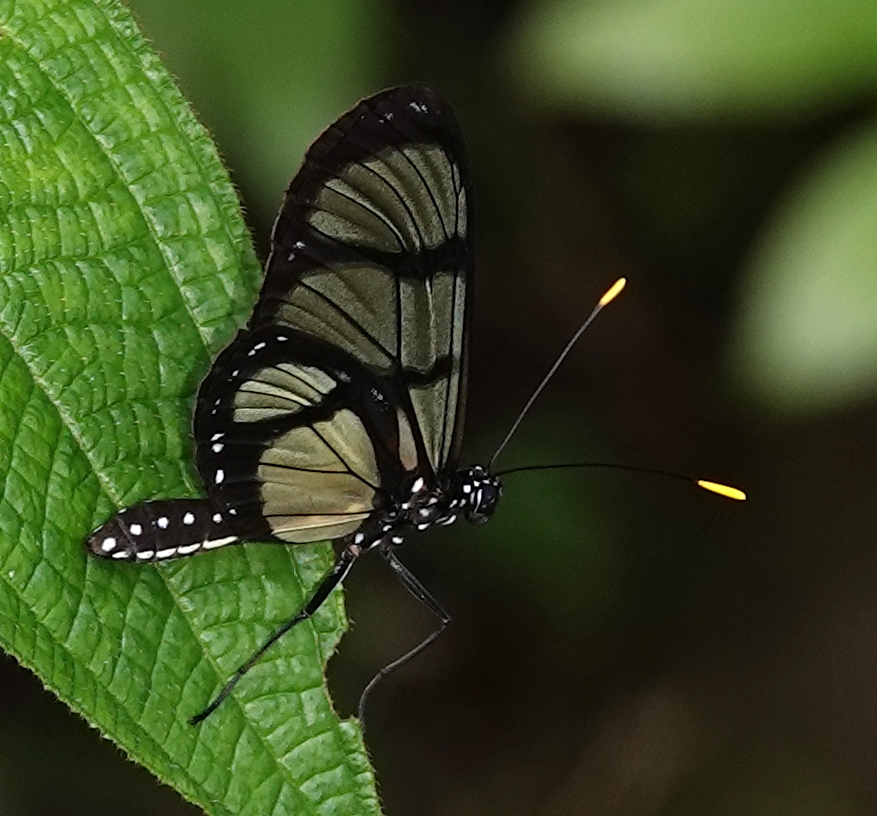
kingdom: Animalia
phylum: Arthropoda
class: Insecta
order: Lepidoptera
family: Nymphalidae
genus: Methona
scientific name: Methona confusa
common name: Confusa tigerwing
